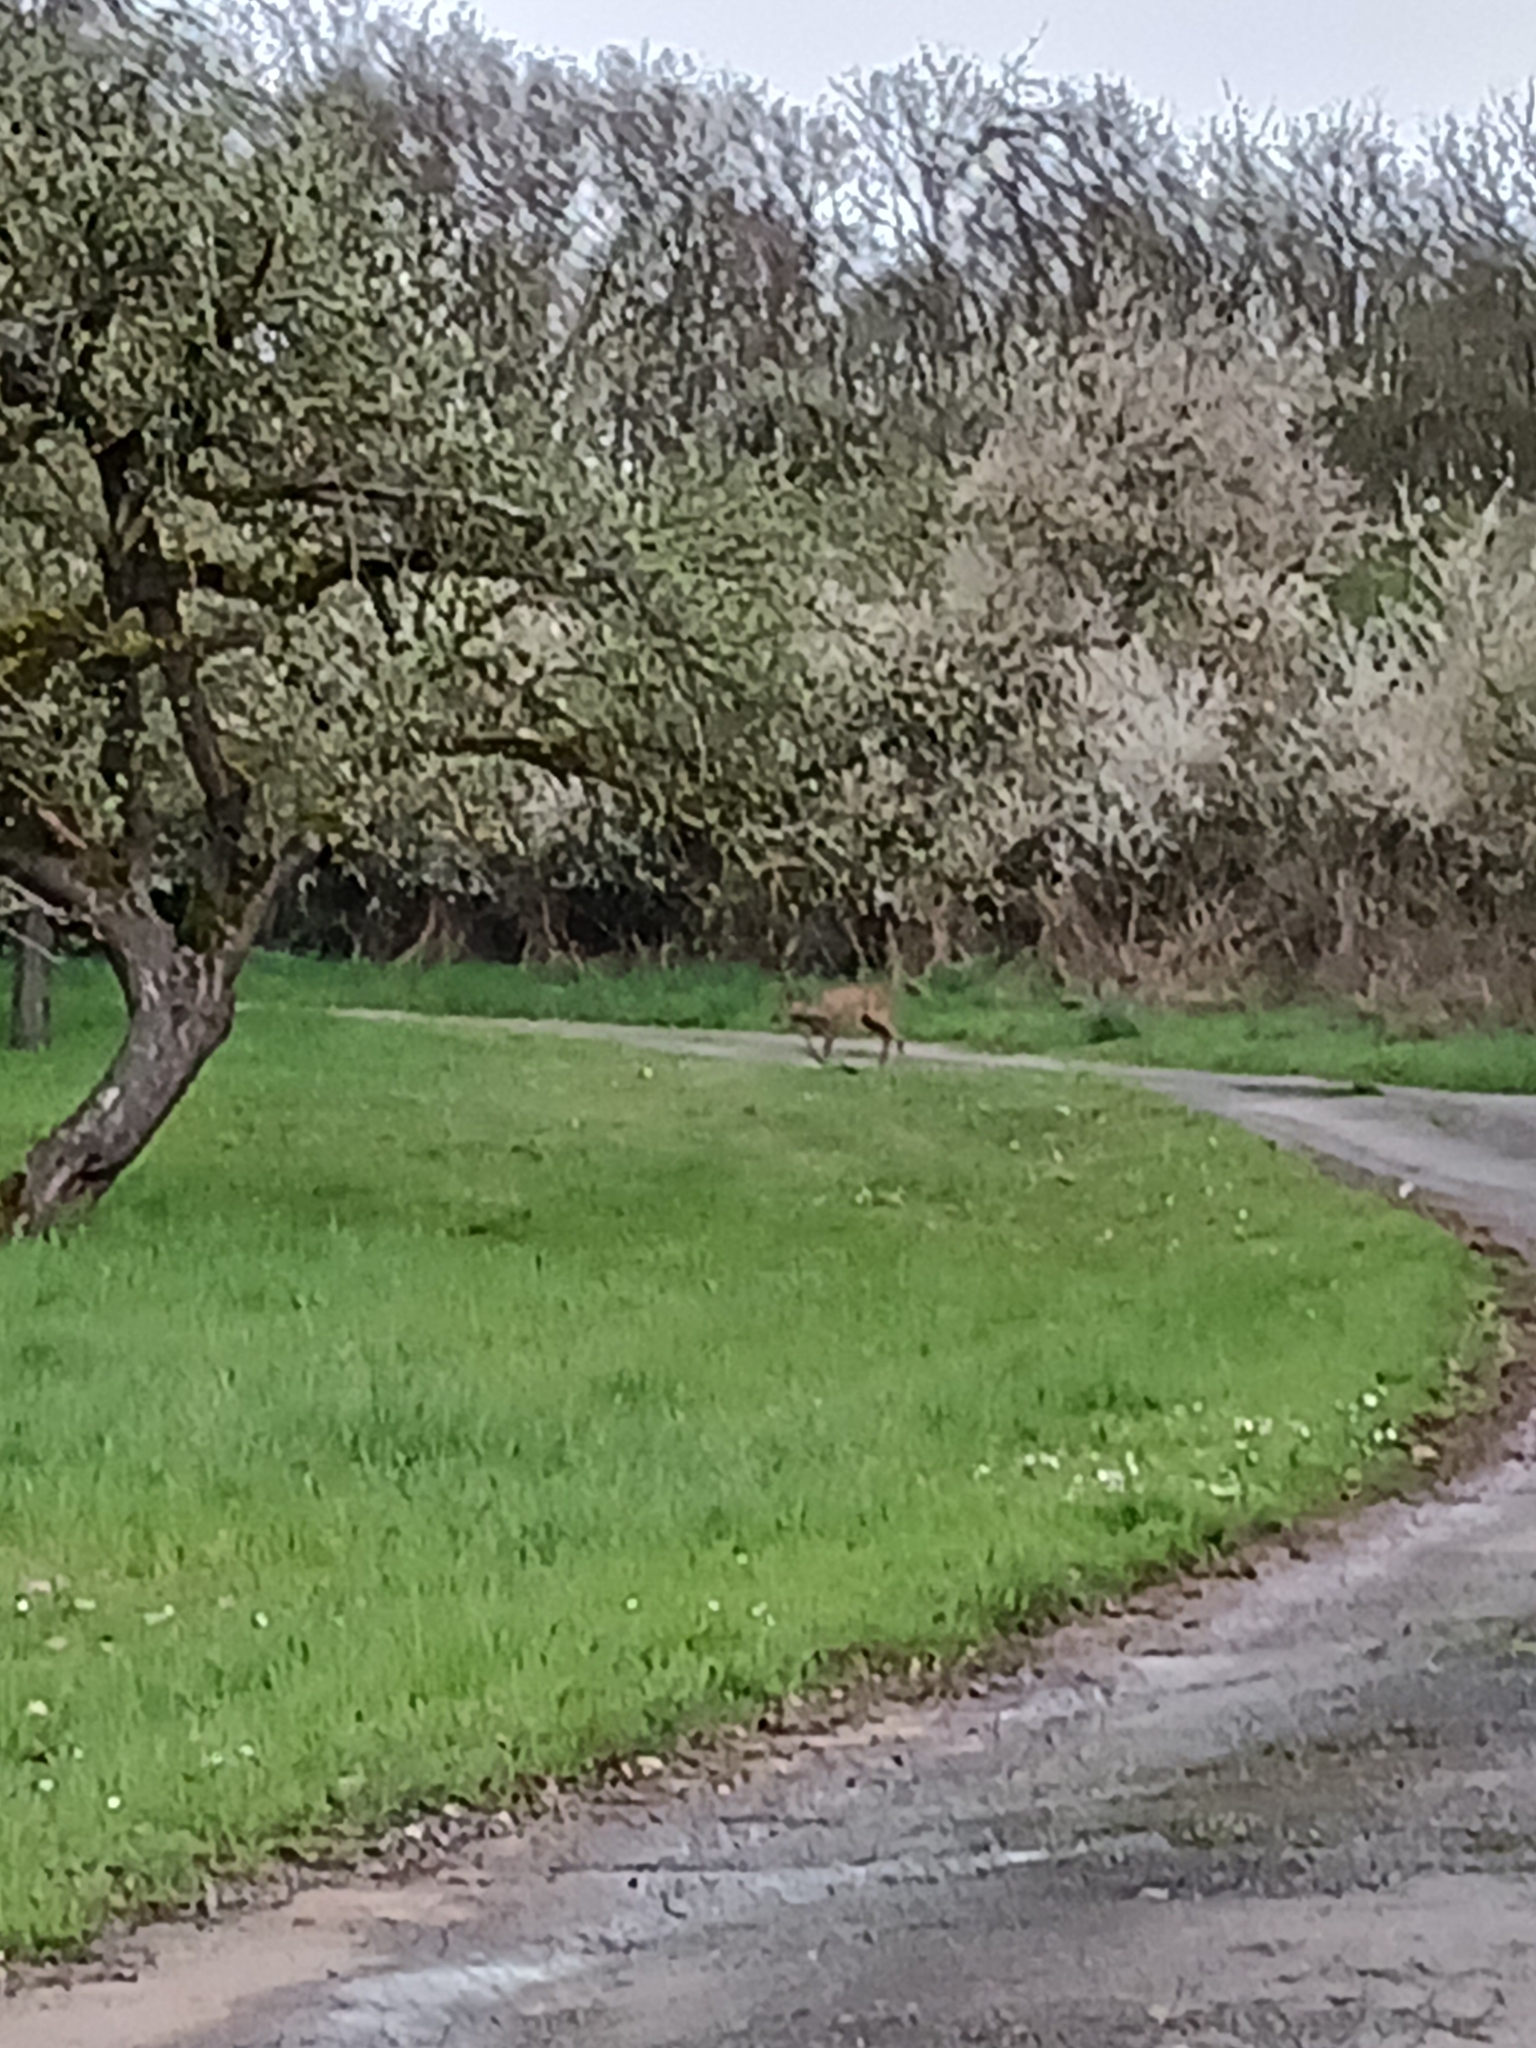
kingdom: Animalia
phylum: Chordata
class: Mammalia
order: Artiodactyla
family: Cervidae
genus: Capreolus
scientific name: Capreolus capreolus
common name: Western roe deer
